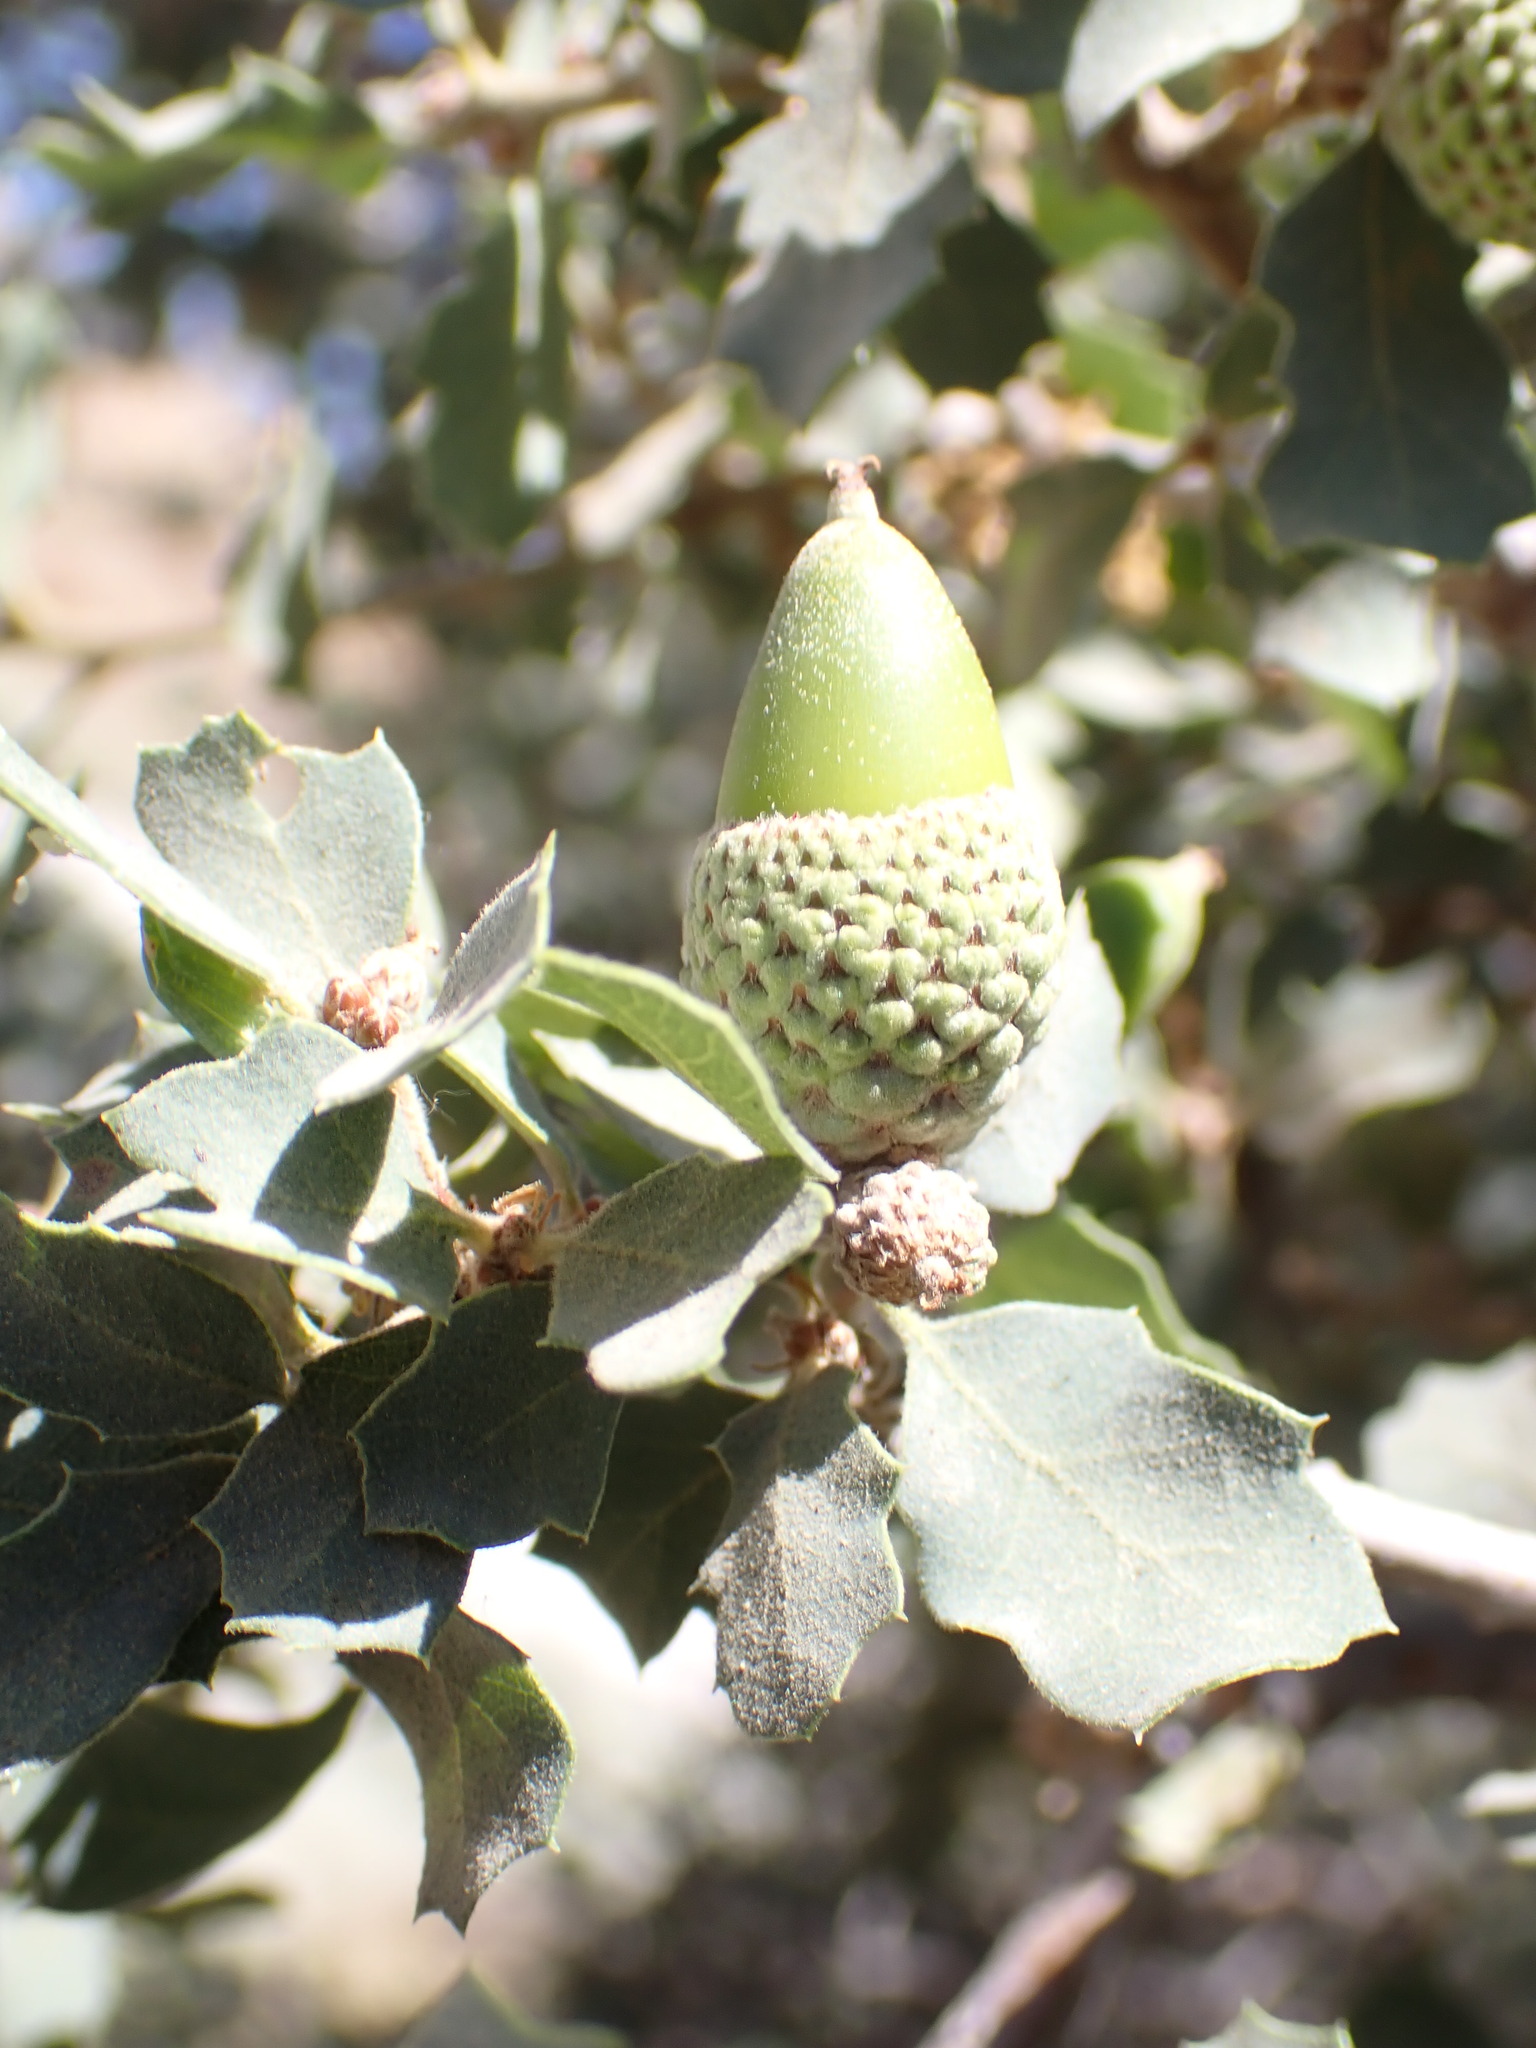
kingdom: Plantae
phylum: Tracheophyta
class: Magnoliopsida
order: Fagales
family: Fagaceae
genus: Quercus
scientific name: Quercus john-tuckeri
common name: Tucker's oak
